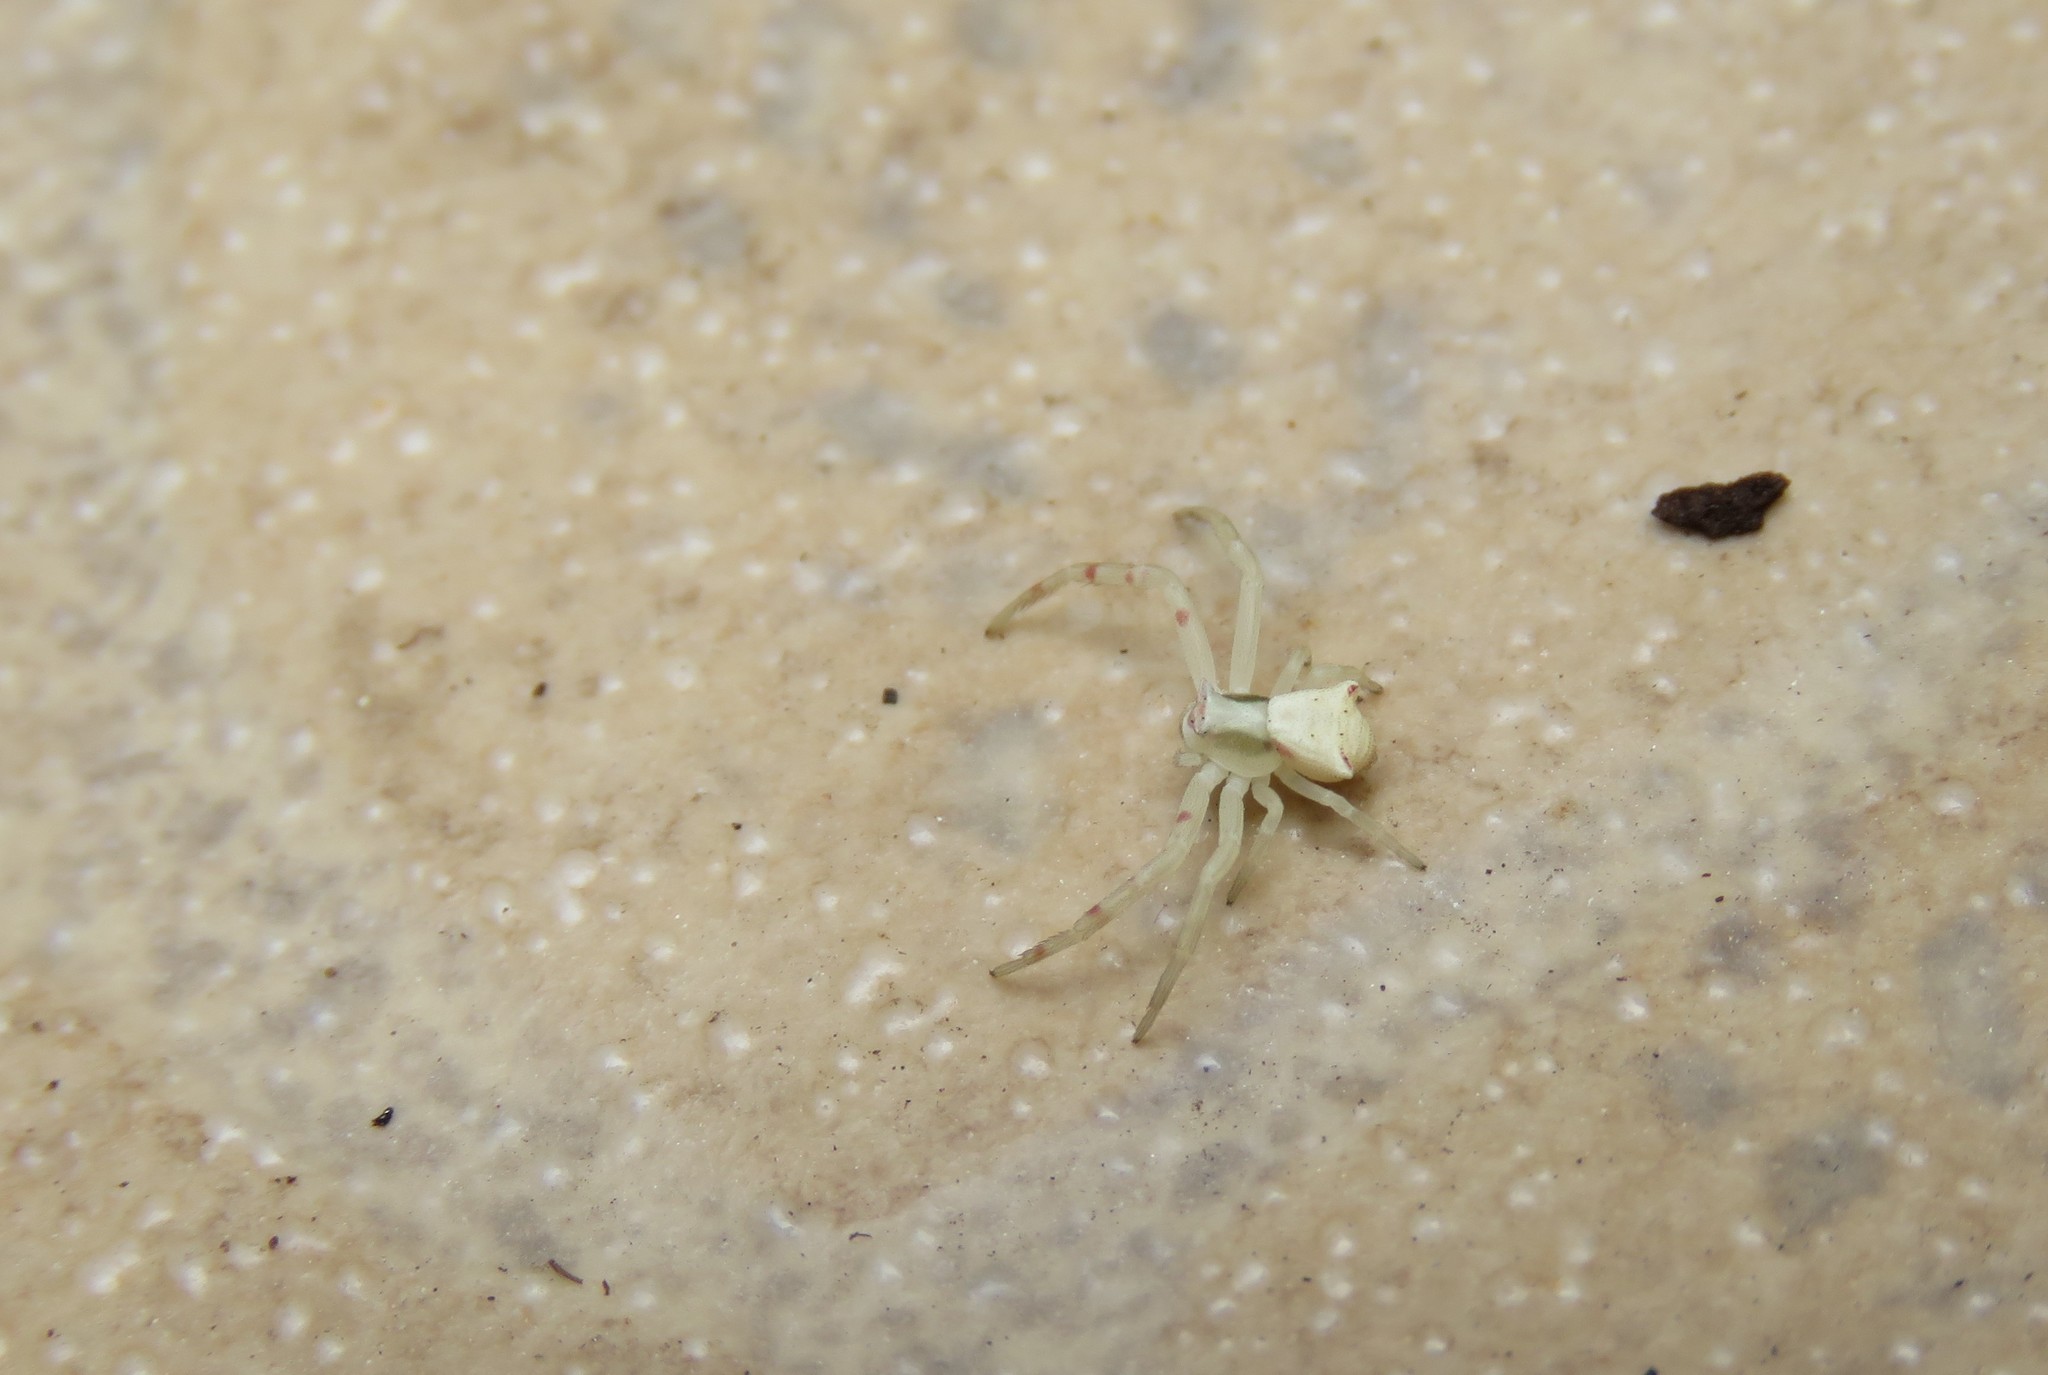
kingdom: Animalia
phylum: Arthropoda
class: Arachnida
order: Araneae
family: Thomisidae
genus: Thomisus
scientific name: Thomisus onustus
